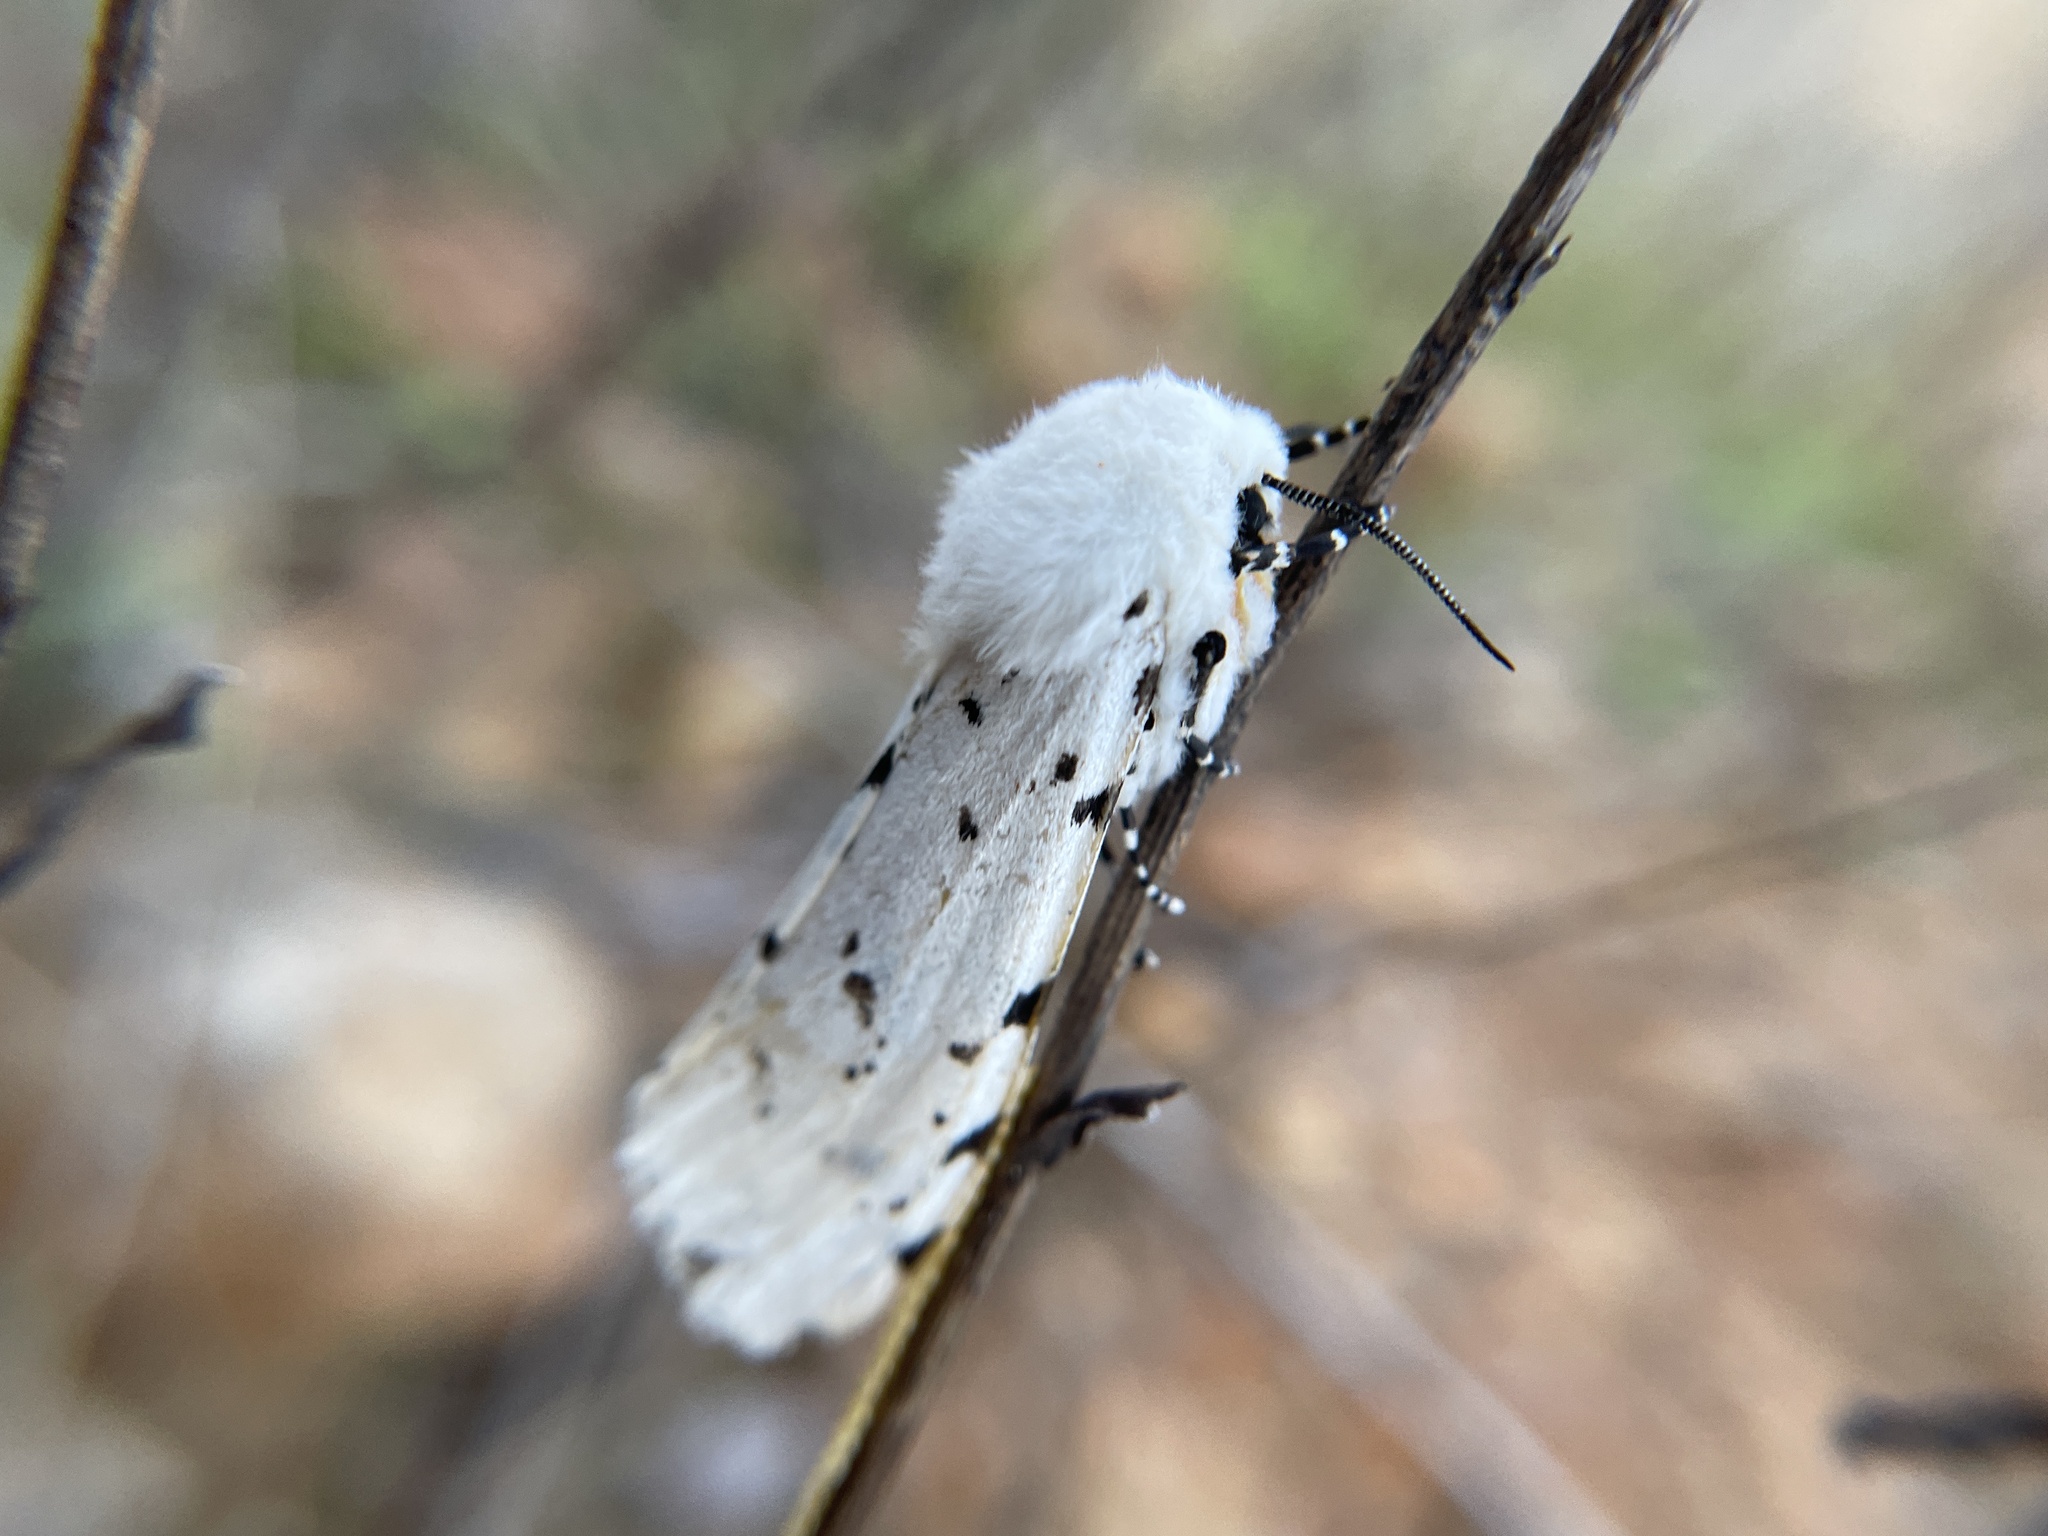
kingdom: Animalia
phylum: Arthropoda
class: Insecta
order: Lepidoptera
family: Erebidae
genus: Estigmene
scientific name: Estigmene acrea
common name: Salt marsh moth
